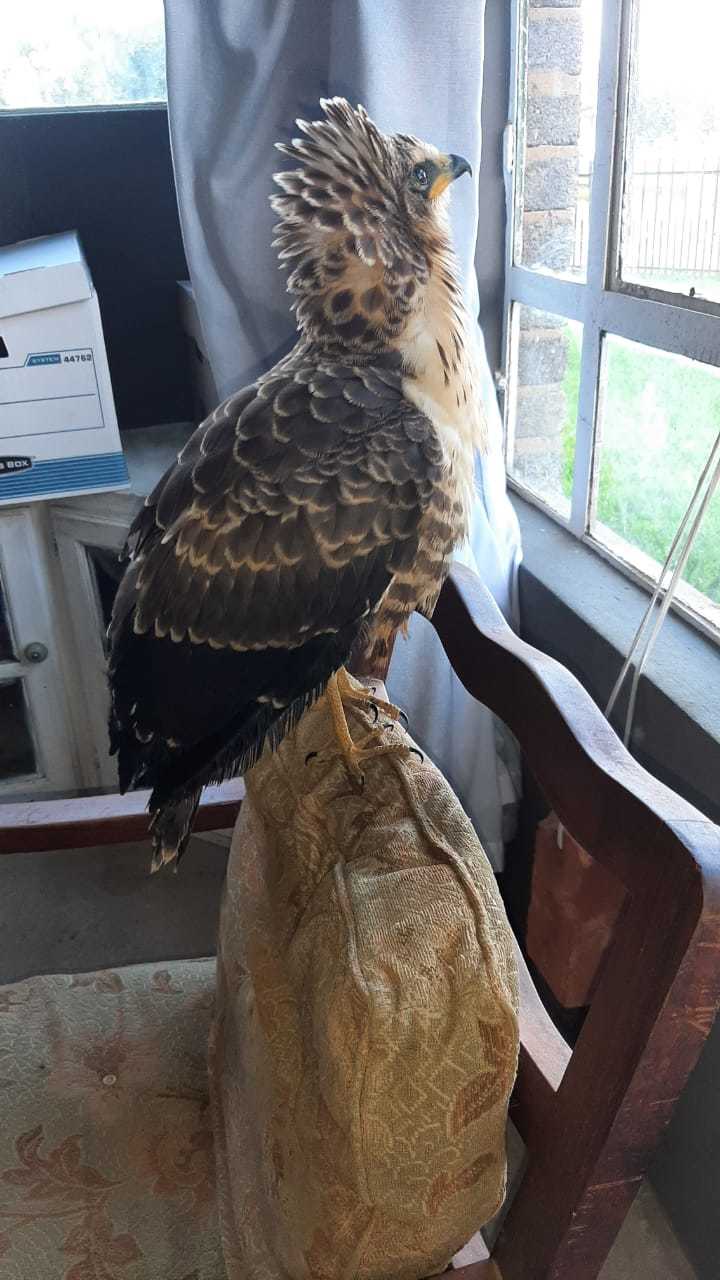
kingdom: Animalia
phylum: Chordata
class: Aves
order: Accipitriformes
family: Accipitridae
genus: Polyboroides
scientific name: Polyboroides typus
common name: African harrier-hawk
